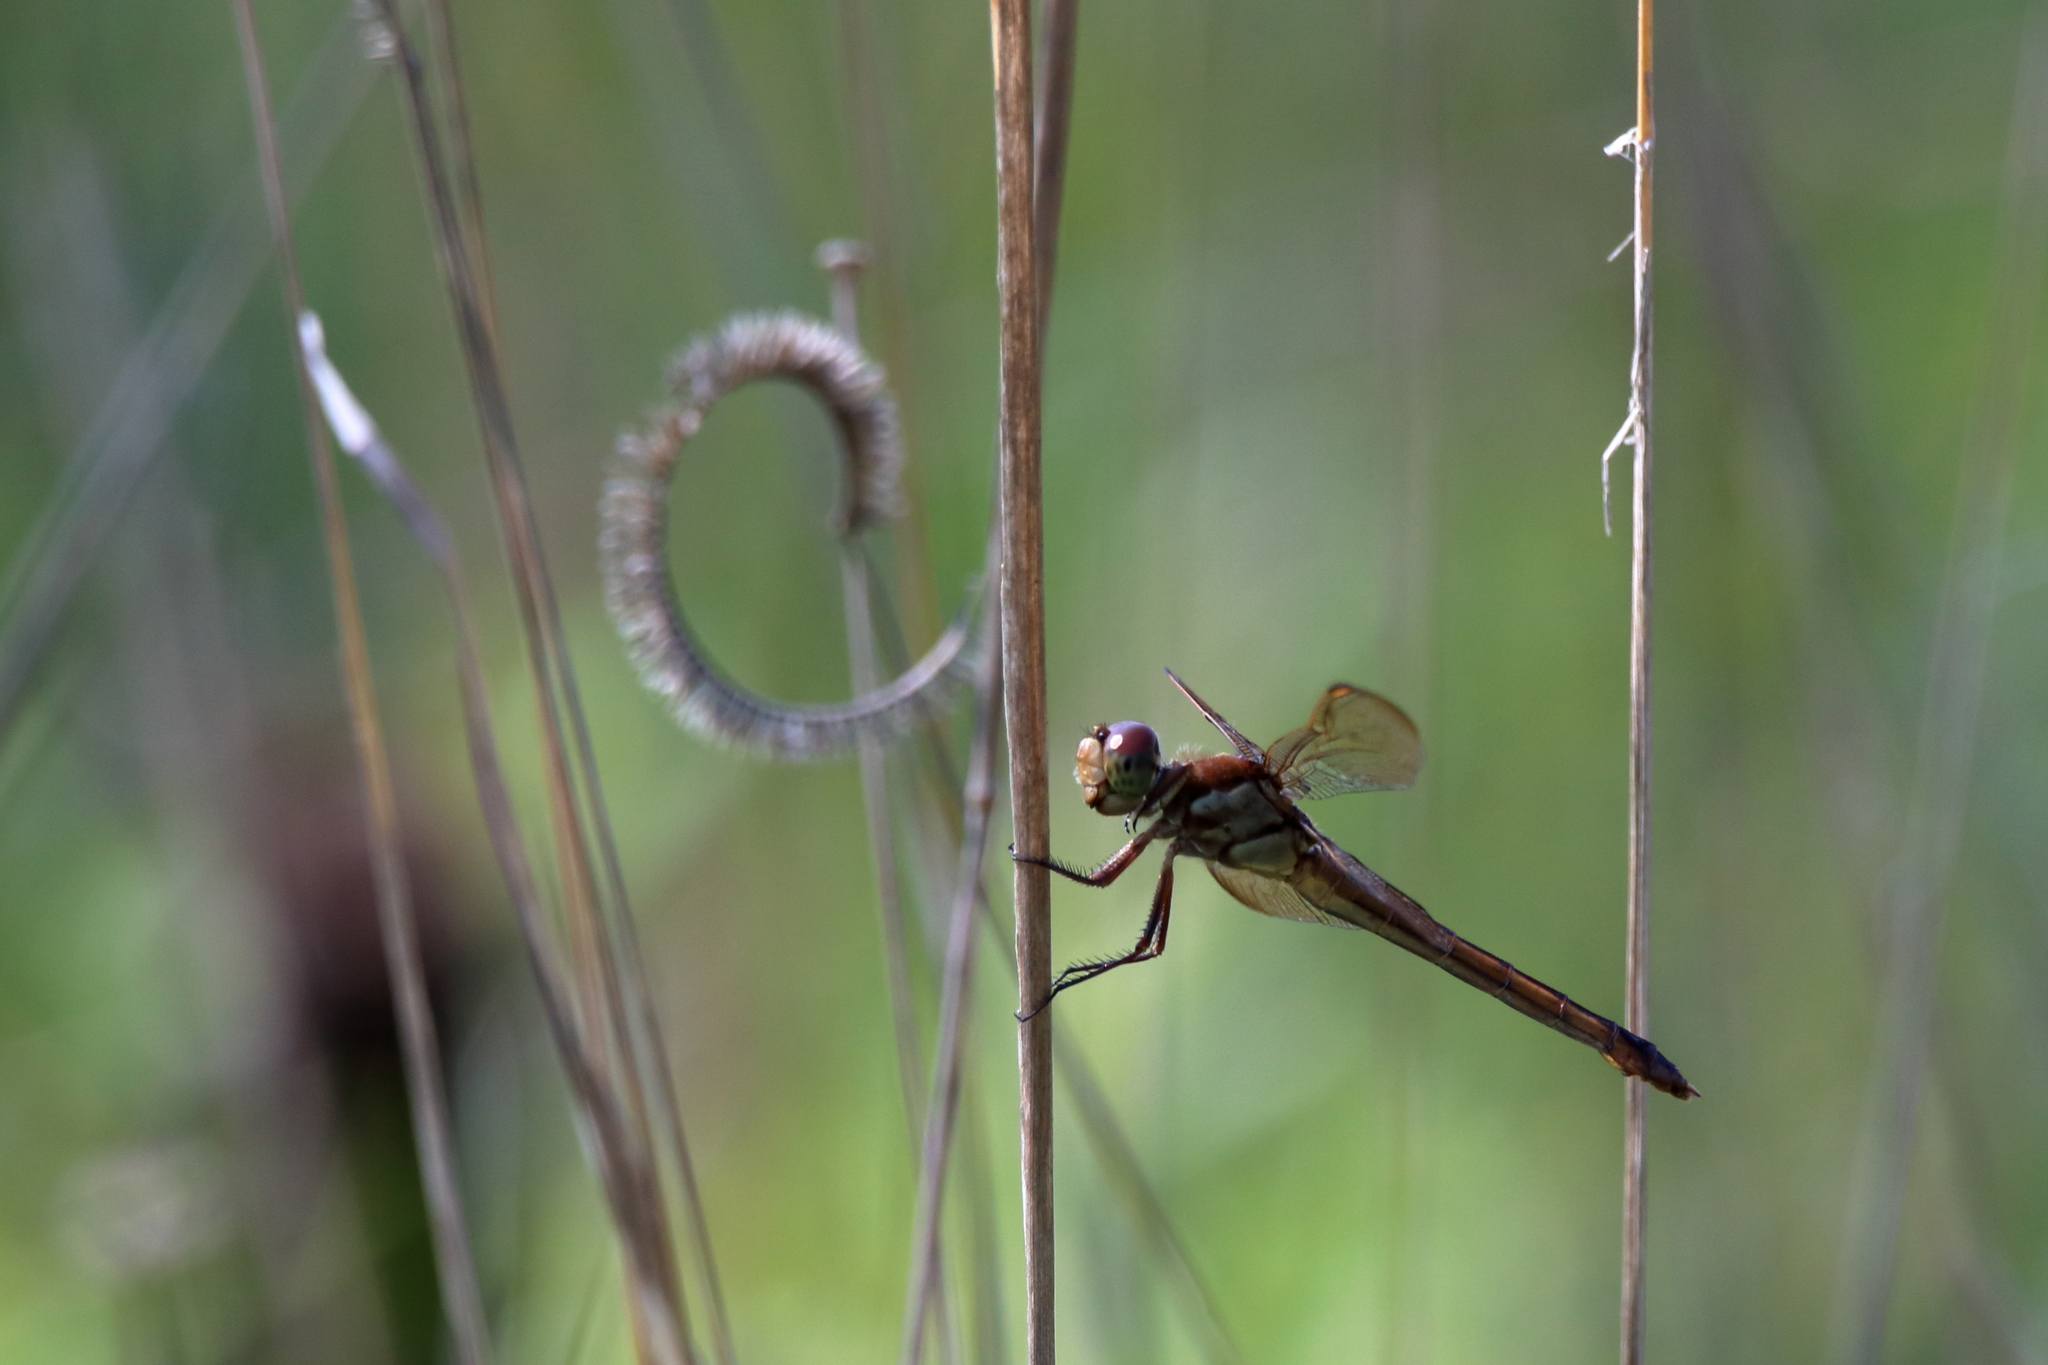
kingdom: Animalia
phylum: Arthropoda
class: Insecta
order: Odonata
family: Libellulidae
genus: Libellula
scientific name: Libellula auripennis
